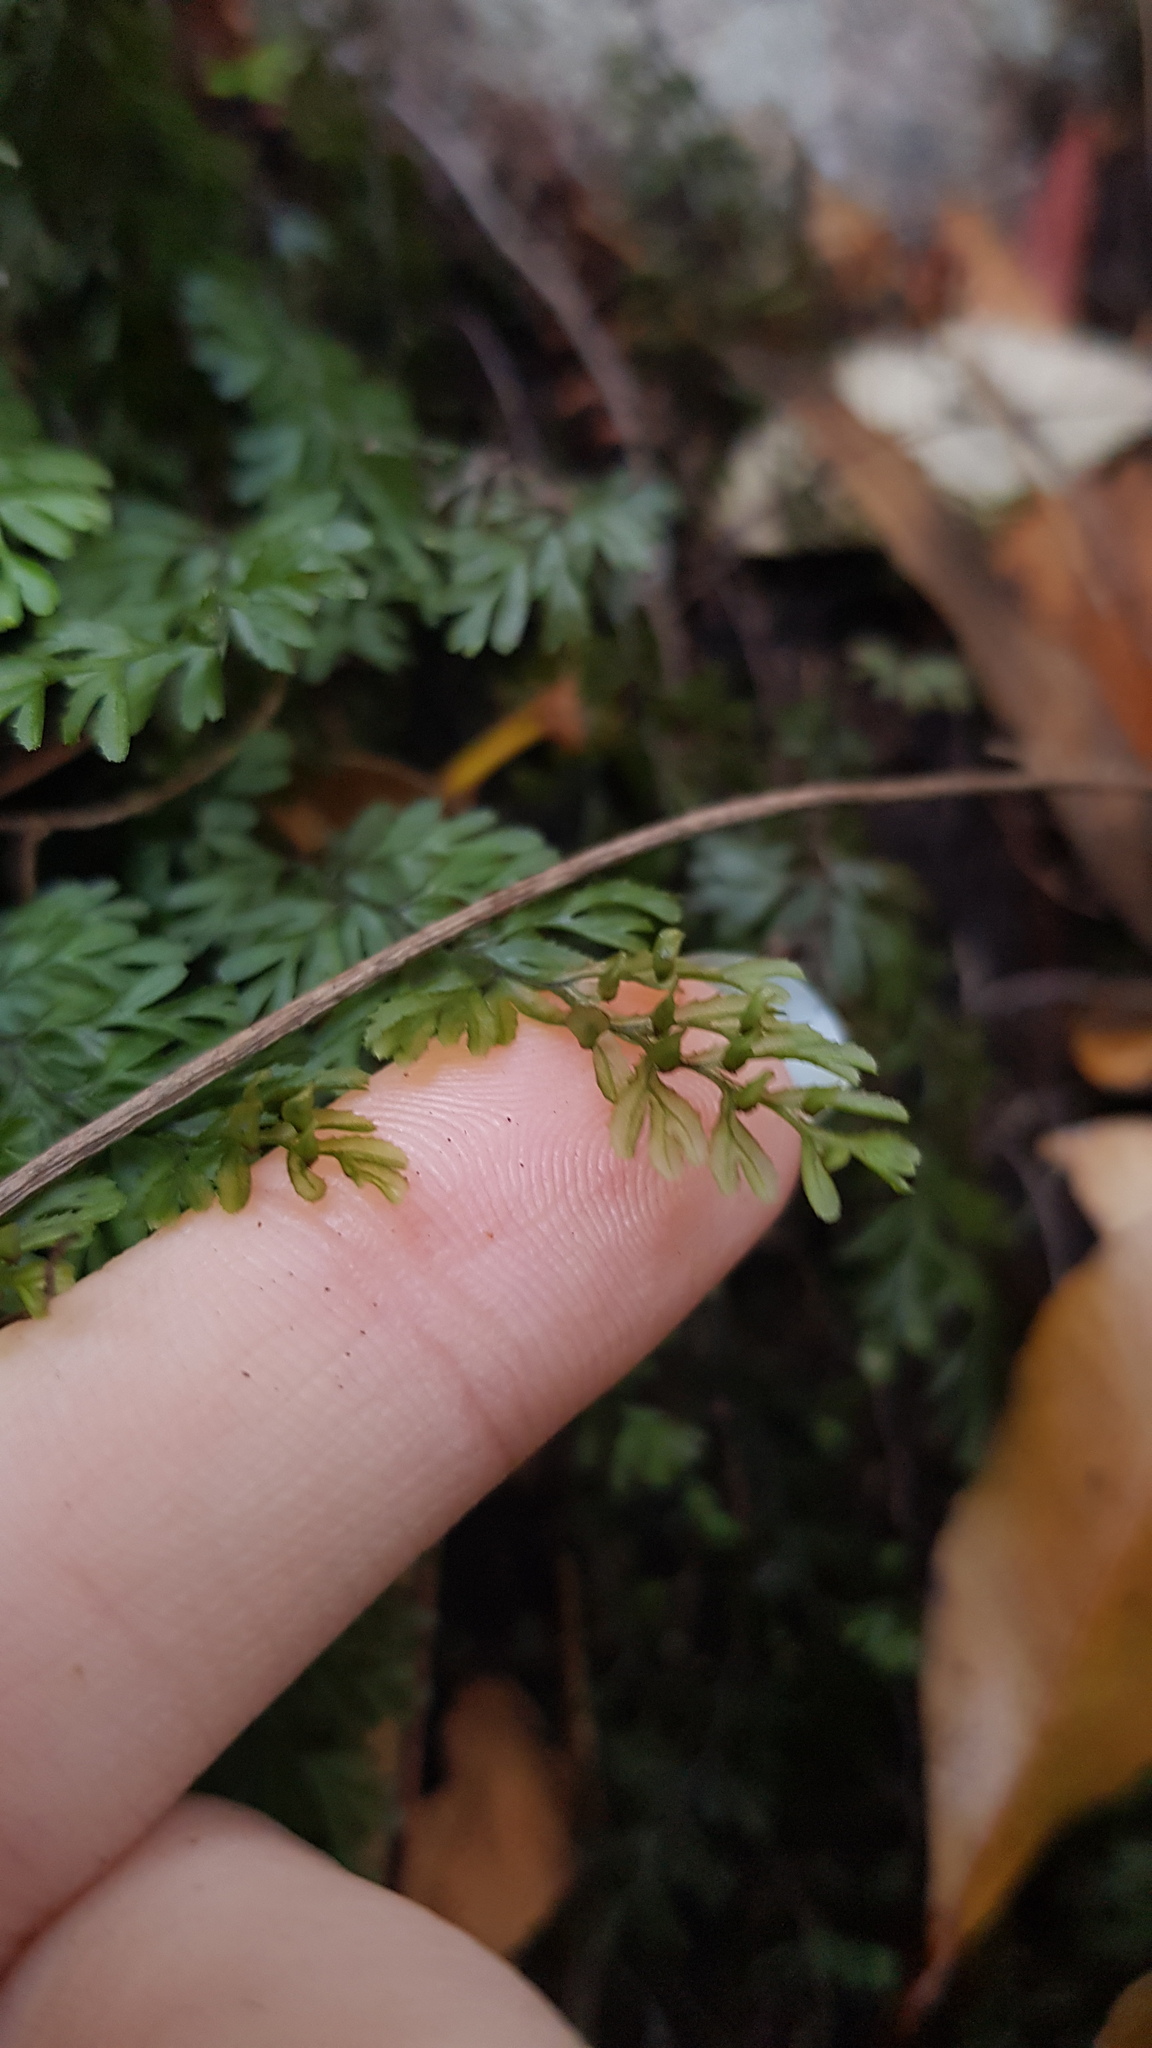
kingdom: Plantae
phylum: Tracheophyta
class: Polypodiopsida
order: Hymenophyllales
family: Hymenophyllaceae
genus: Hymenophyllum
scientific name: Hymenophyllum cupressiforme
